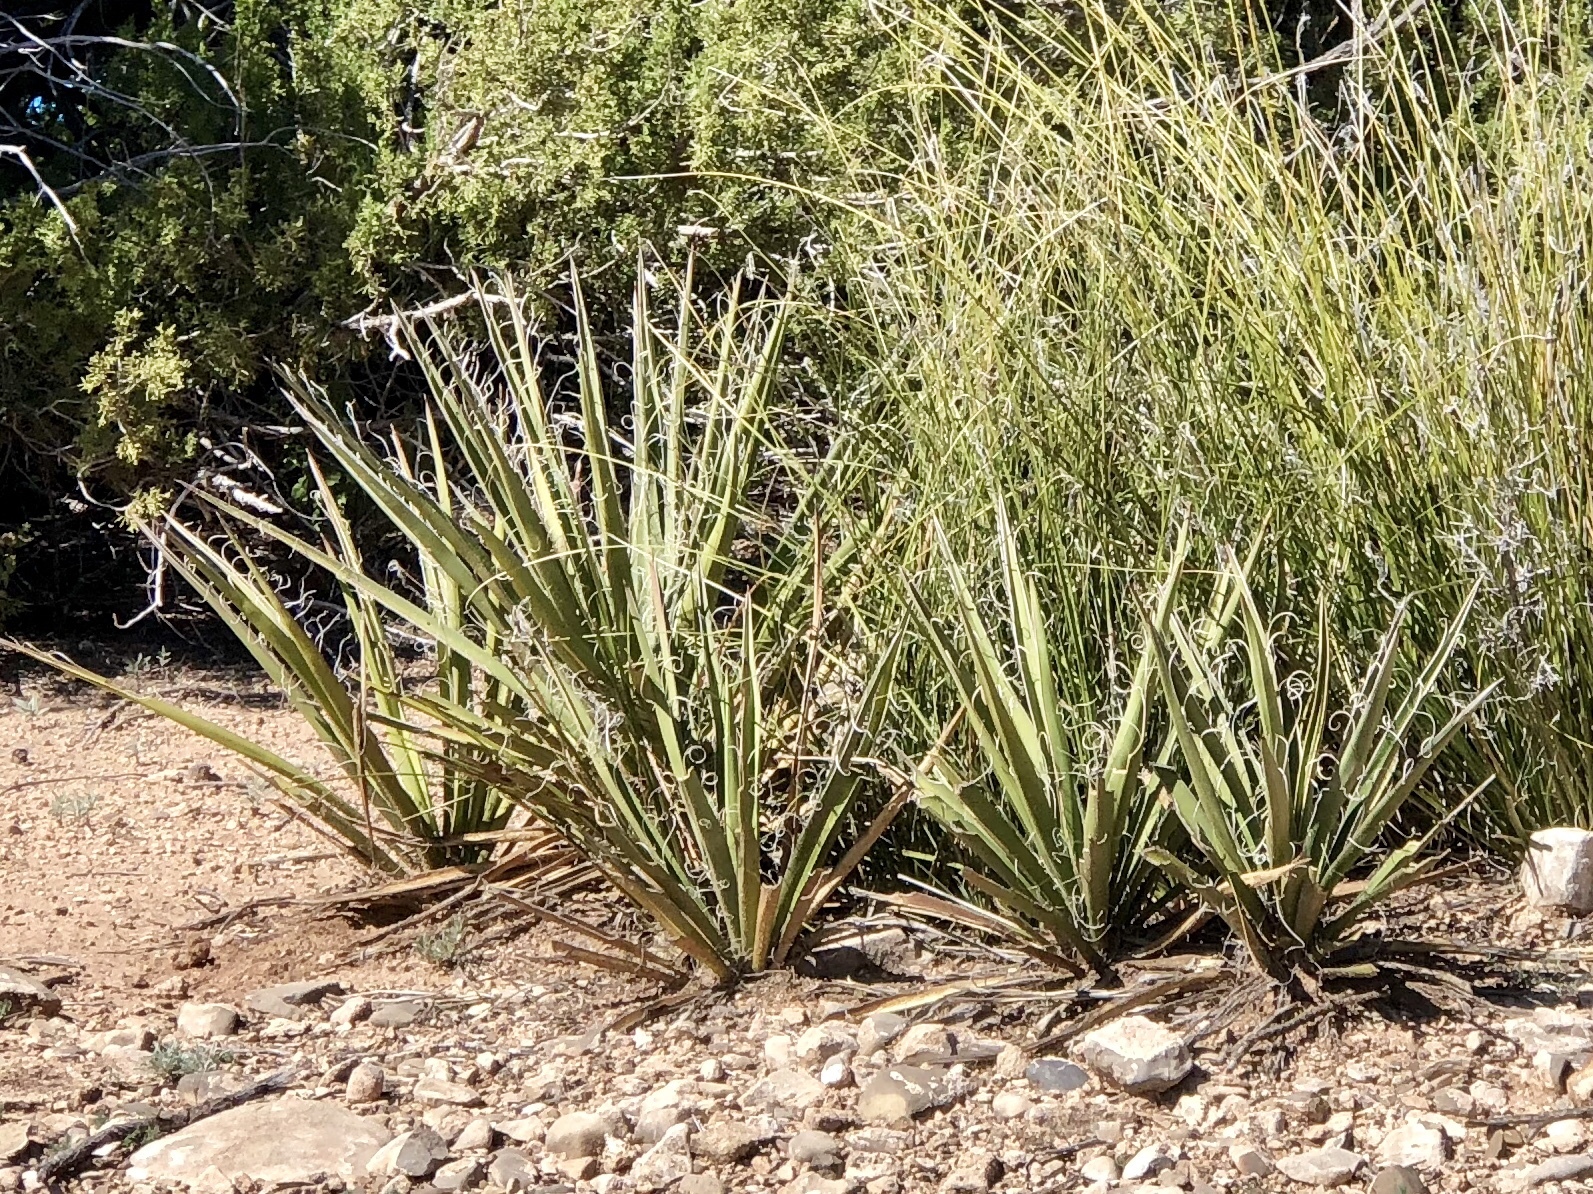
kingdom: Plantae
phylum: Tracheophyta
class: Liliopsida
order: Asparagales
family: Asparagaceae
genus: Yucca
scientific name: Yucca baccata
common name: Banana yucca
